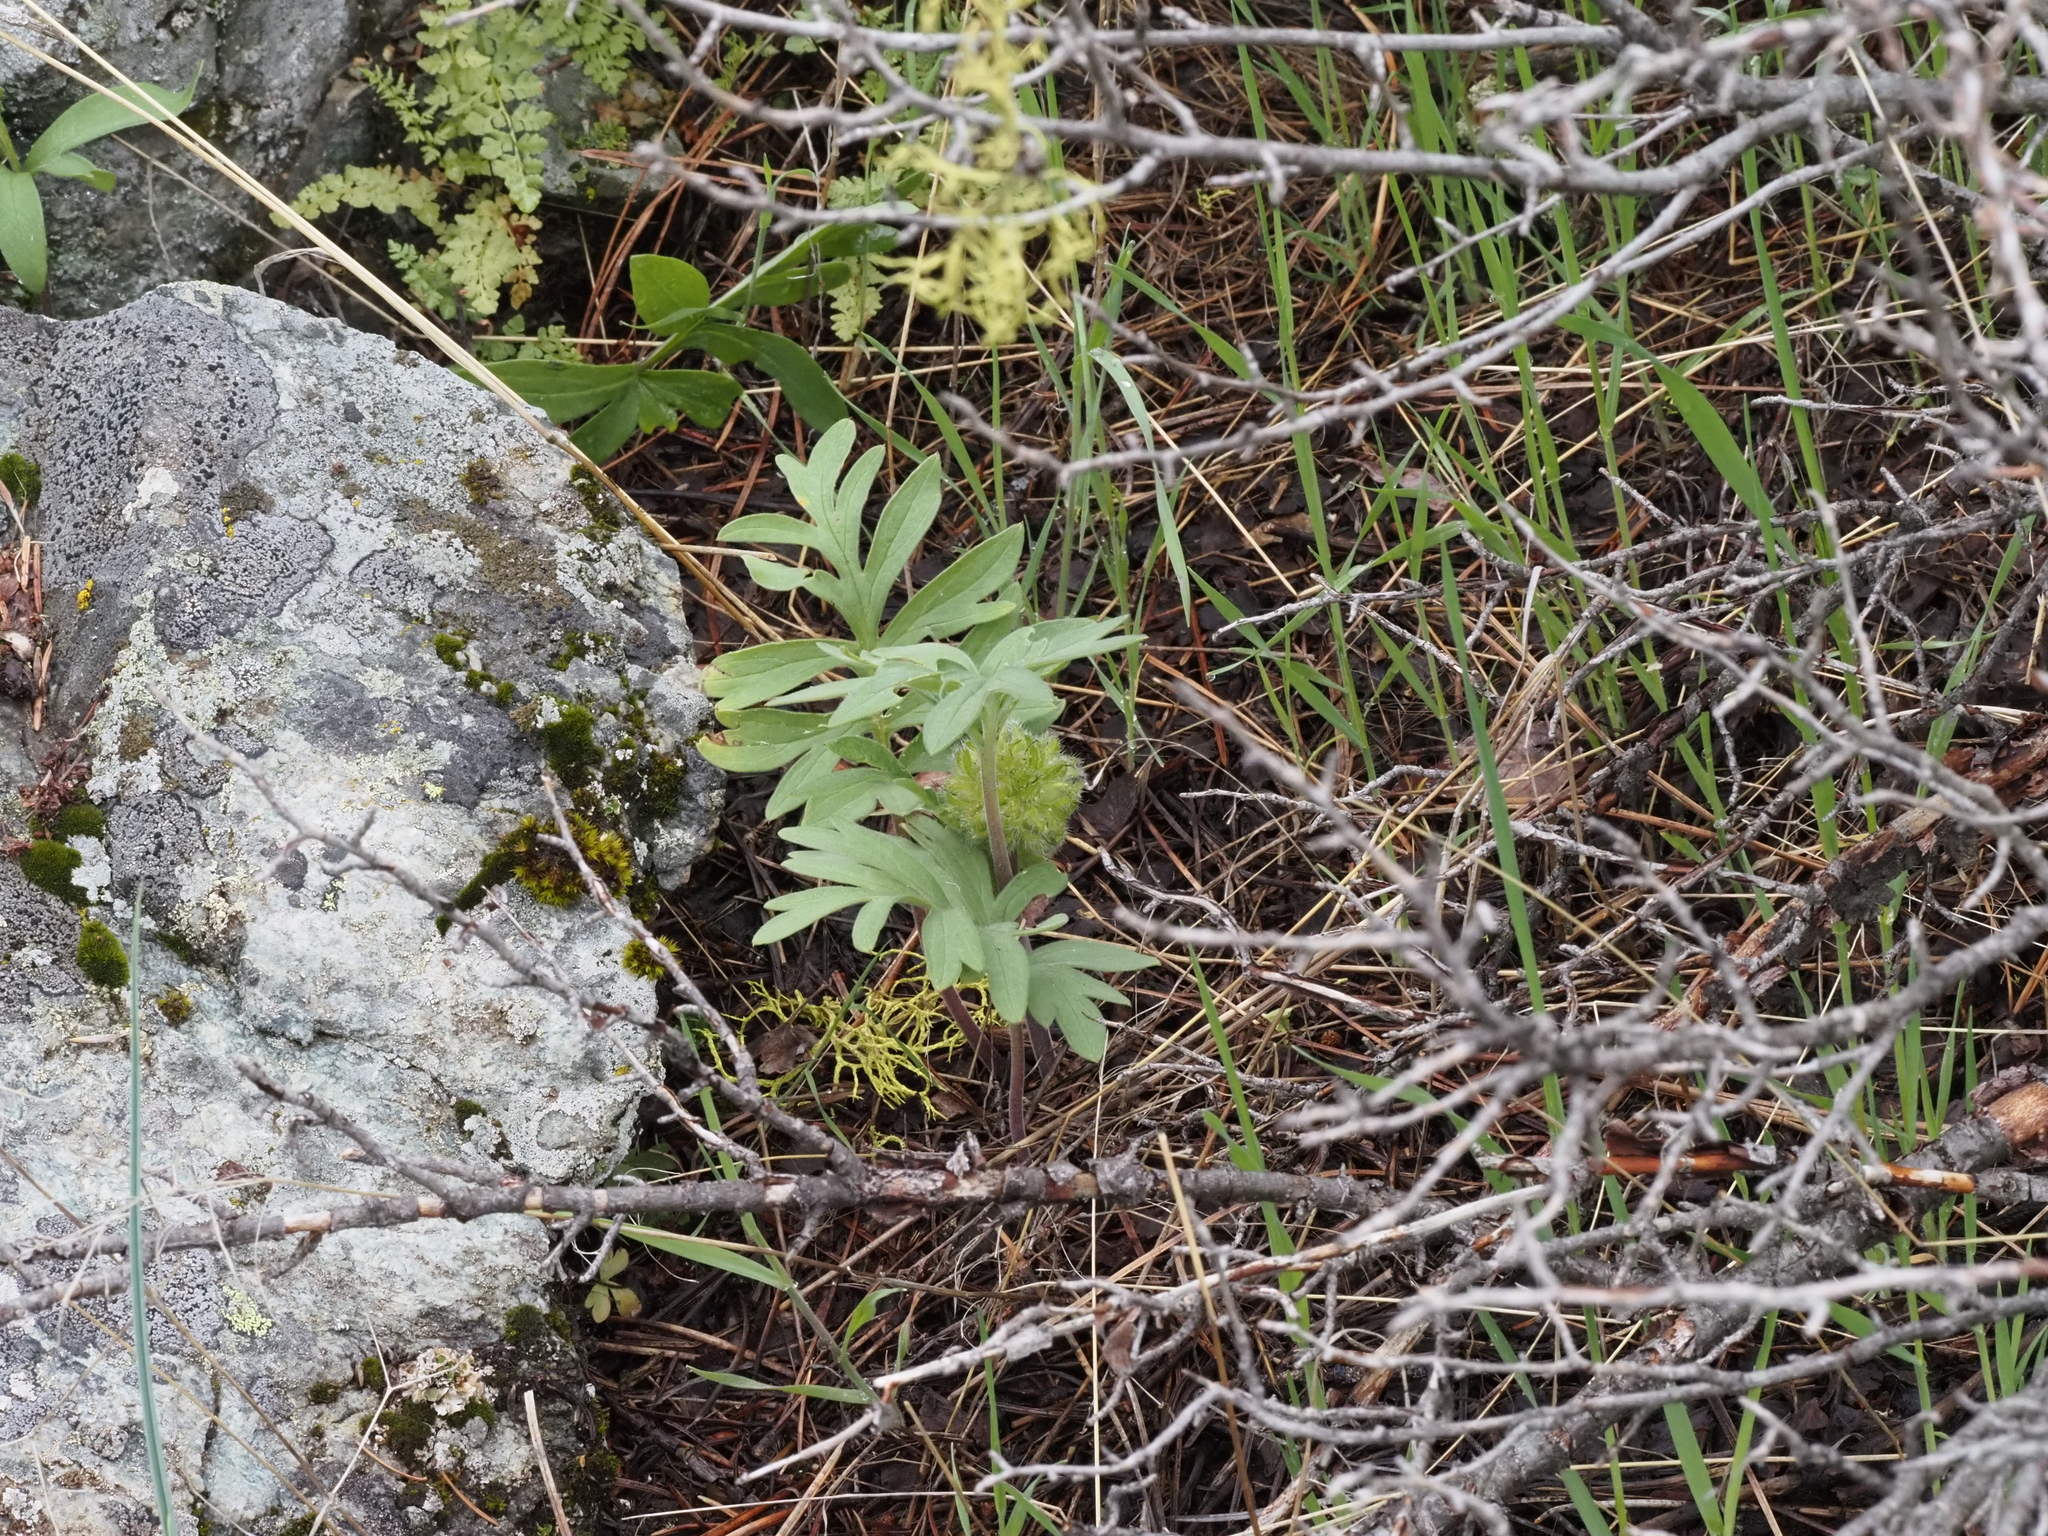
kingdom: Plantae
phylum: Tracheophyta
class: Magnoliopsida
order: Boraginales
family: Hydrophyllaceae
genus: Hydrophyllum
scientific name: Hydrophyllum capitatum
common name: Woollen-breeches
